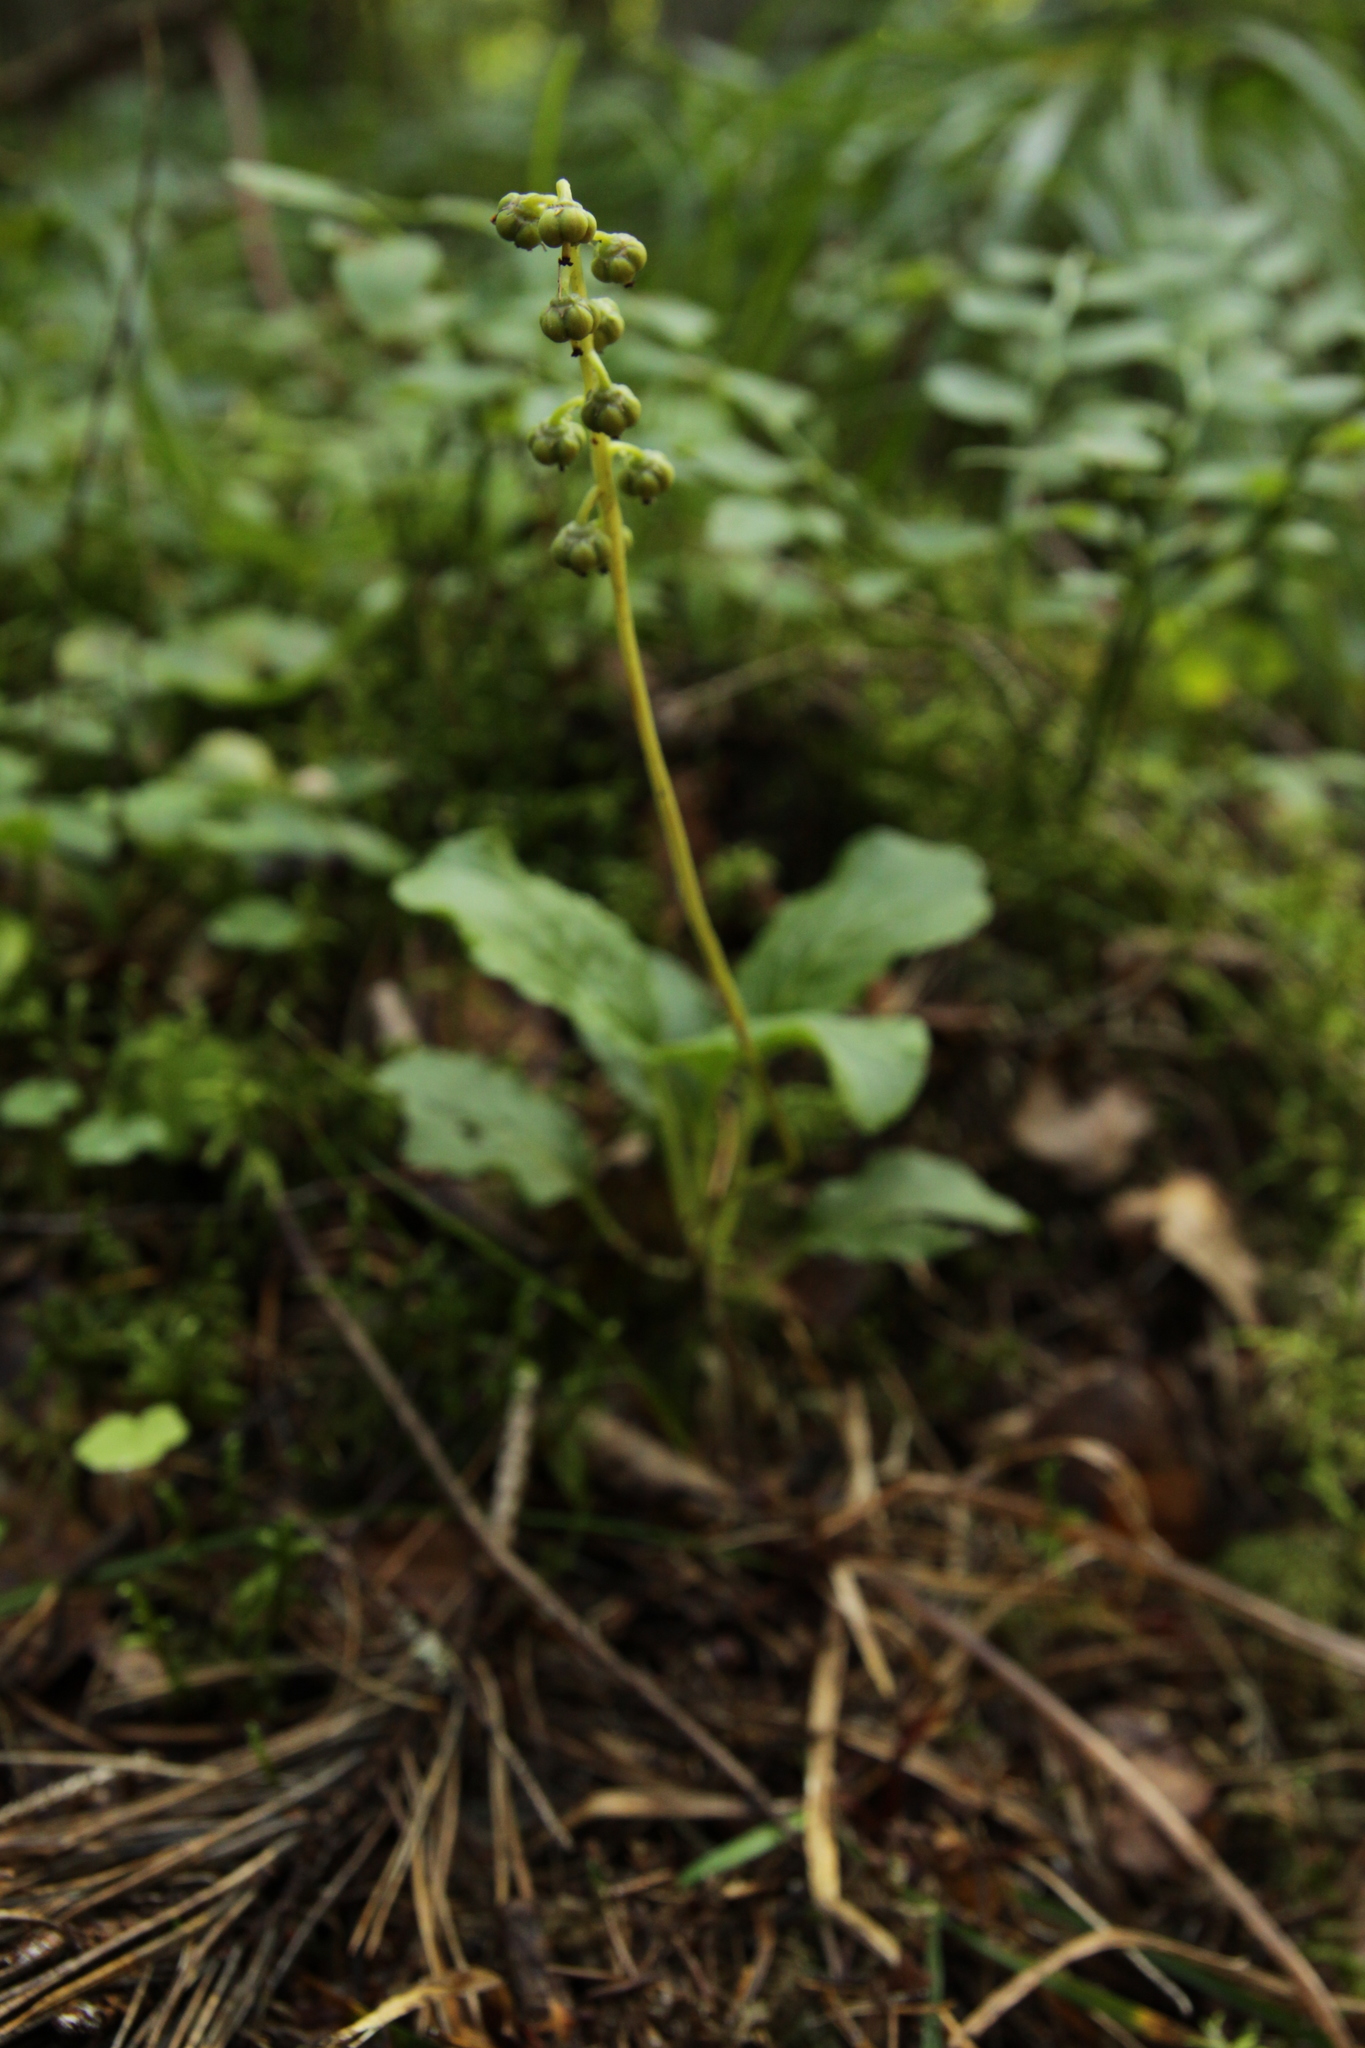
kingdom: Plantae
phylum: Tracheophyta
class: Magnoliopsida
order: Ericales
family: Ericaceae
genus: Pyrola
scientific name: Pyrola minor
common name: Common wintergreen
